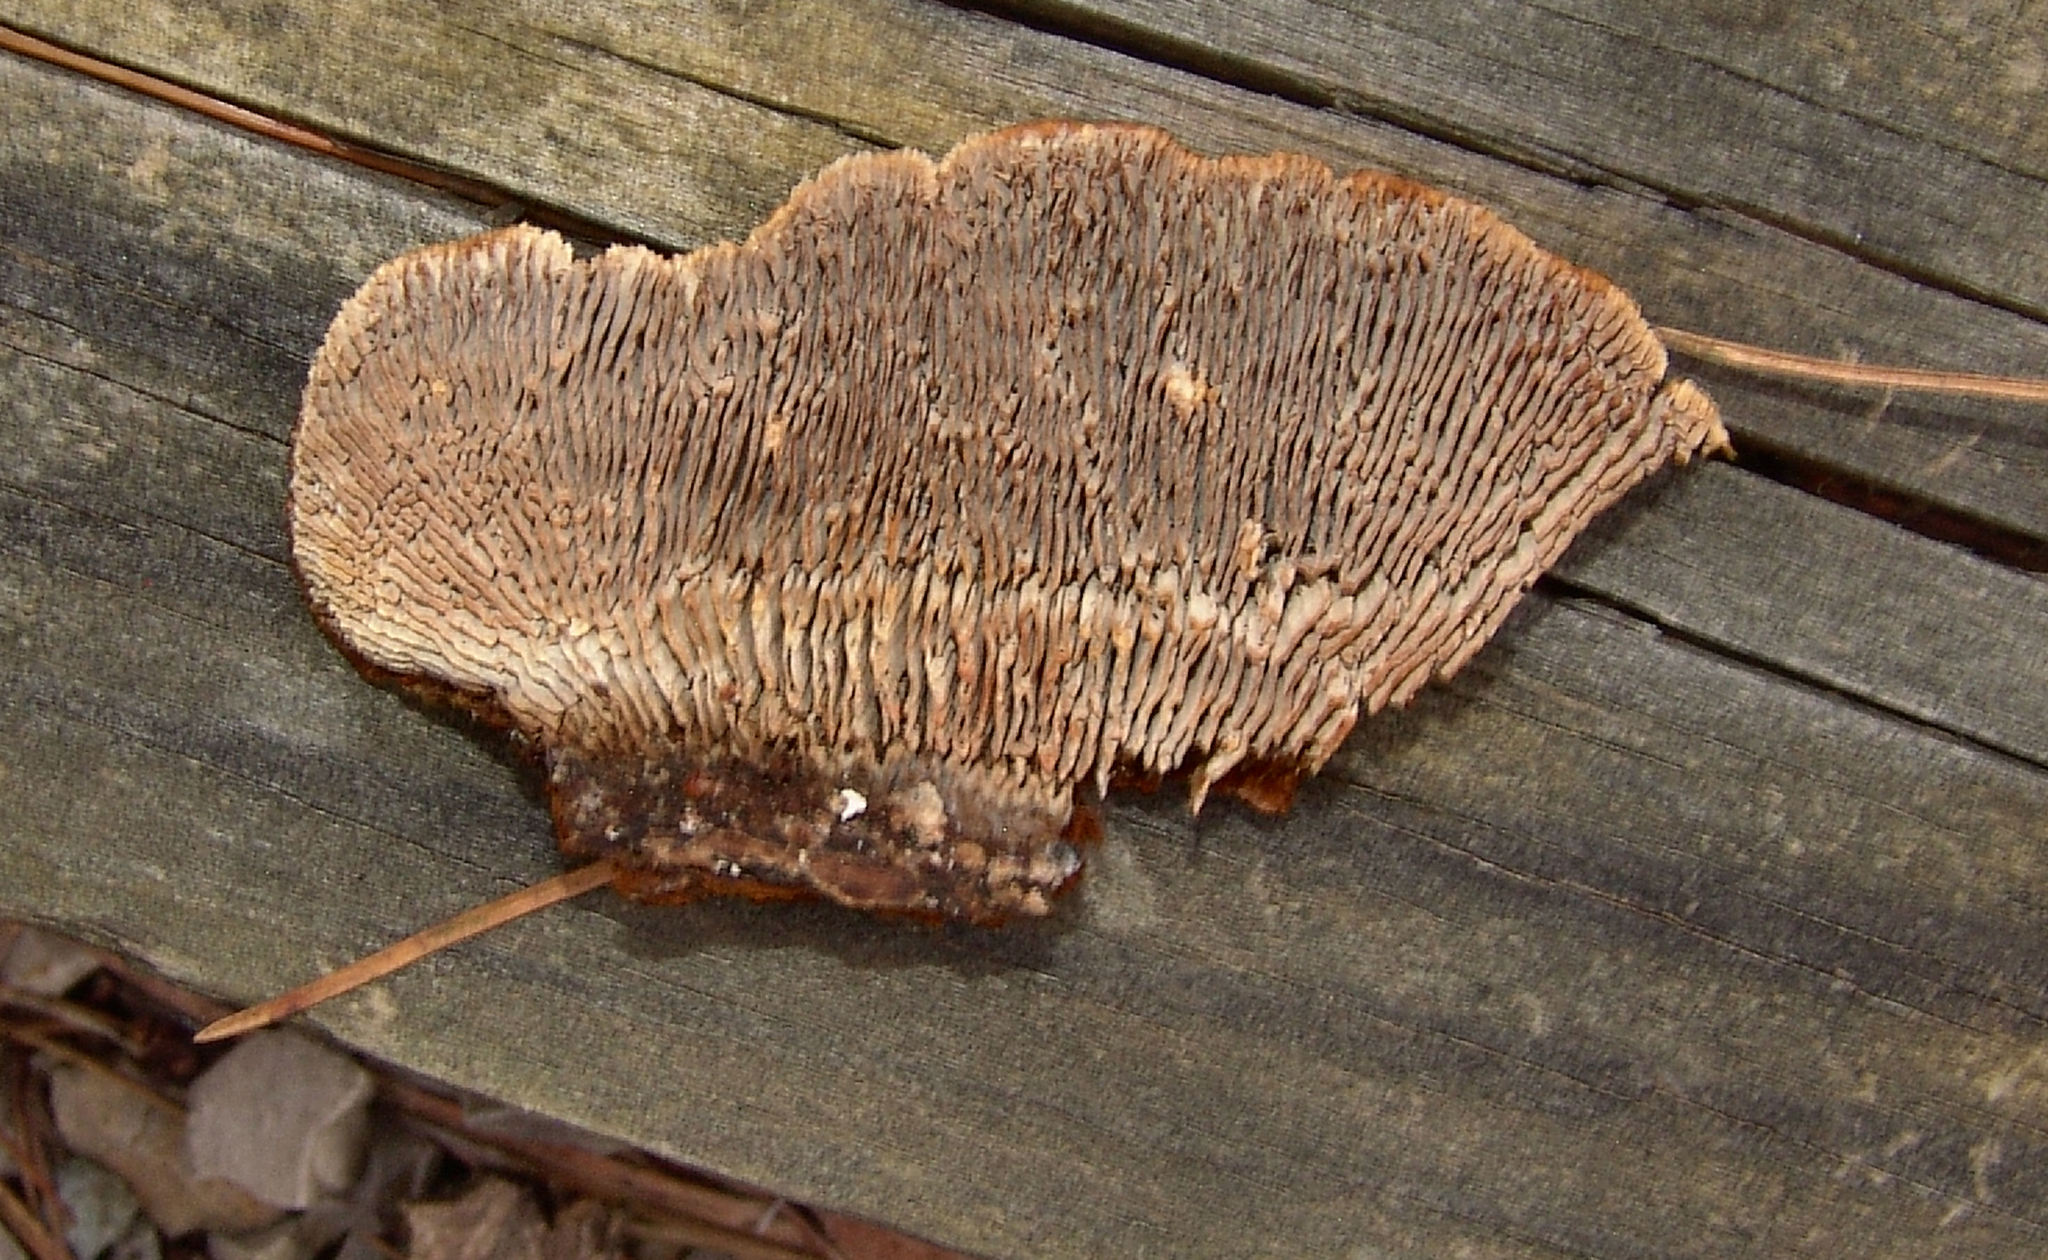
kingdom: Fungi
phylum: Basidiomycota
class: Agaricomycetes
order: Gloeophyllales
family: Gloeophyllaceae
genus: Gloeophyllum
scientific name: Gloeophyllum sepiarium
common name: Conifer mazegill
